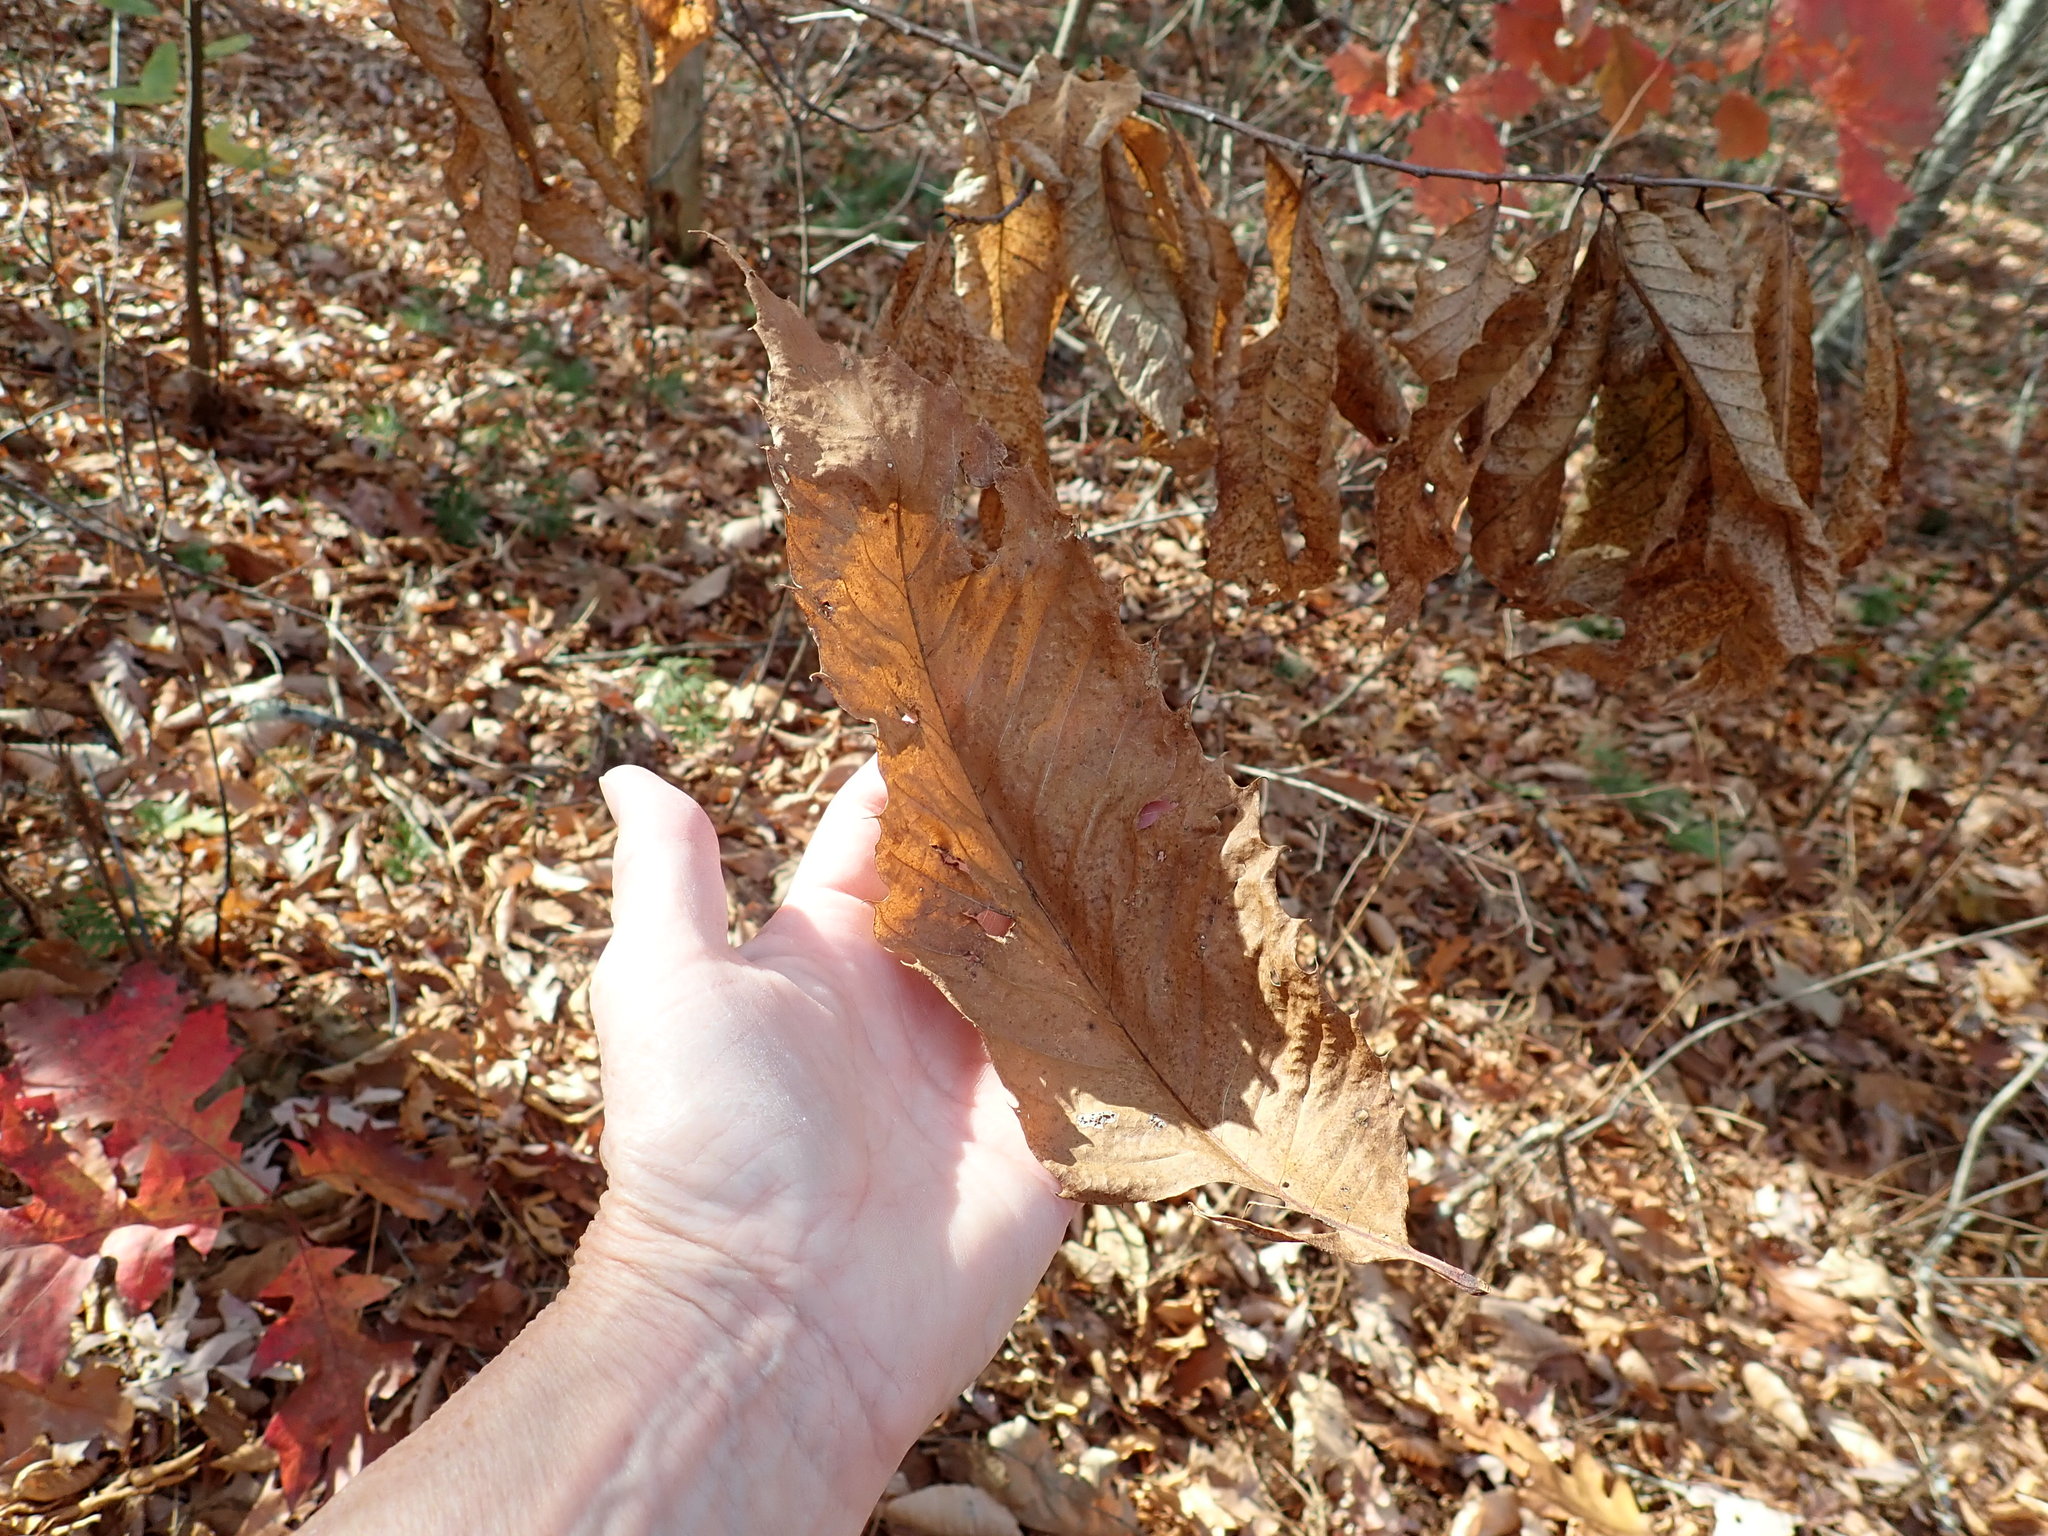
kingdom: Plantae
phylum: Tracheophyta
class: Magnoliopsida
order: Fagales
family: Fagaceae
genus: Castanea
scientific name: Castanea dentata
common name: American chestnut
